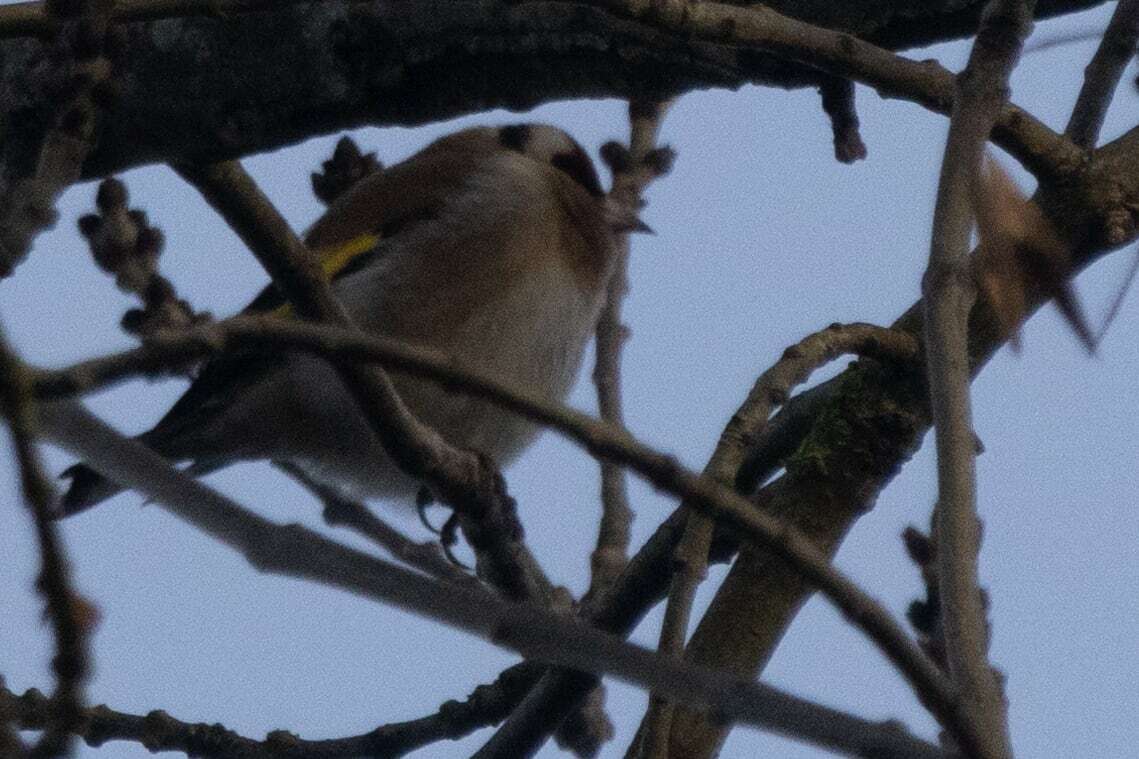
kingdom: Animalia
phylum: Chordata
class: Aves
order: Passeriformes
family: Fringillidae
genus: Carduelis
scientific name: Carduelis carduelis
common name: European goldfinch
